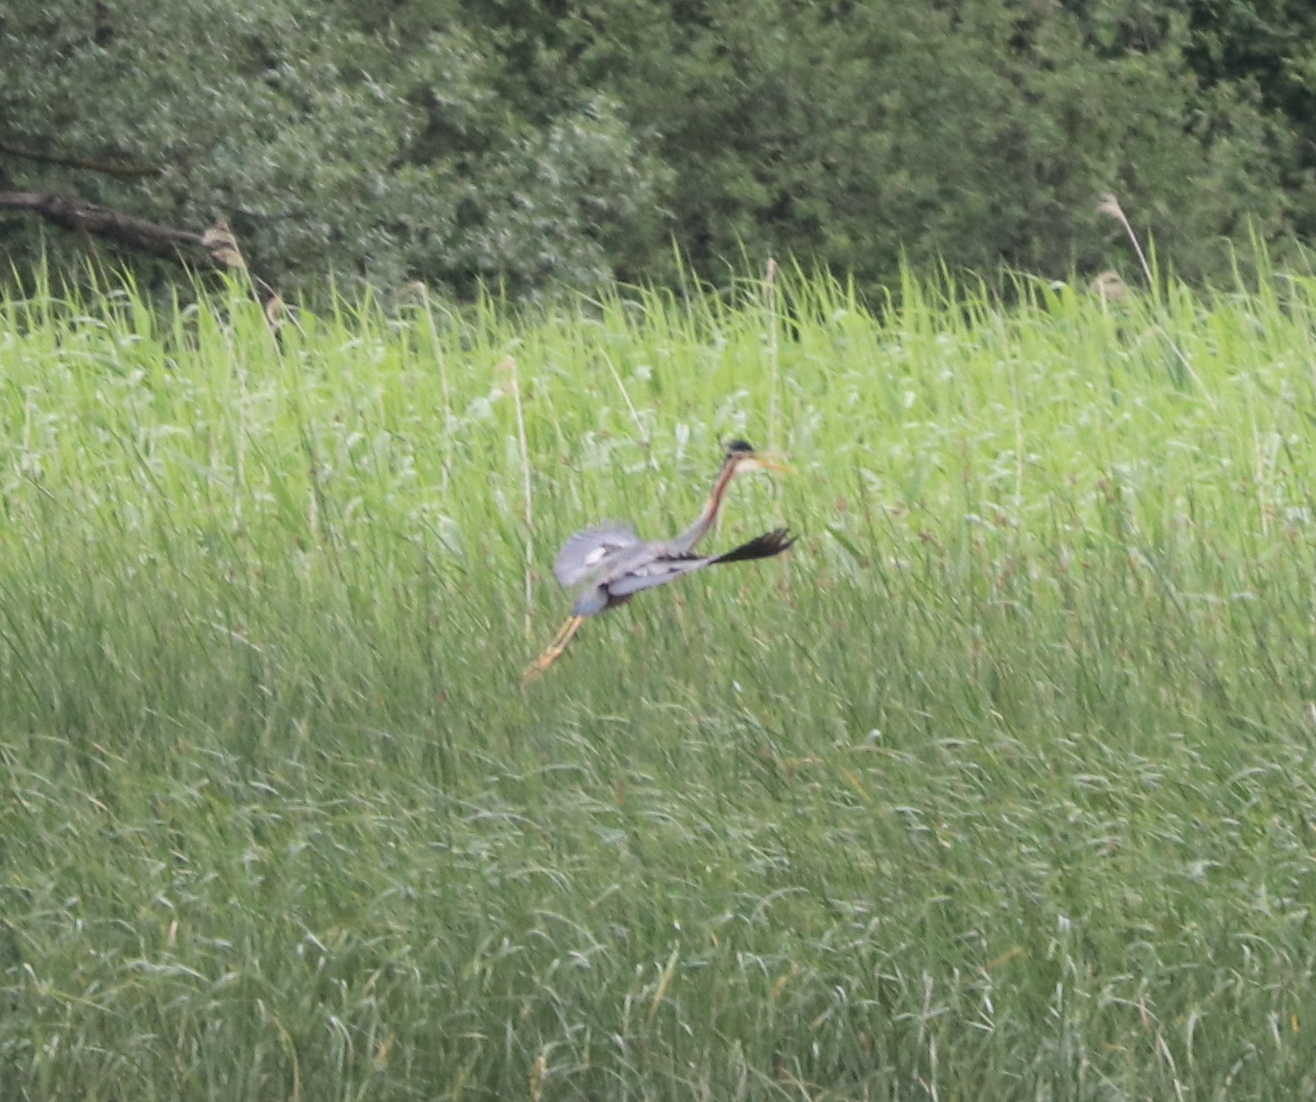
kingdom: Animalia
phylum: Chordata
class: Aves
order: Pelecaniformes
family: Ardeidae
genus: Ardea
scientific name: Ardea purpurea
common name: Purple heron
